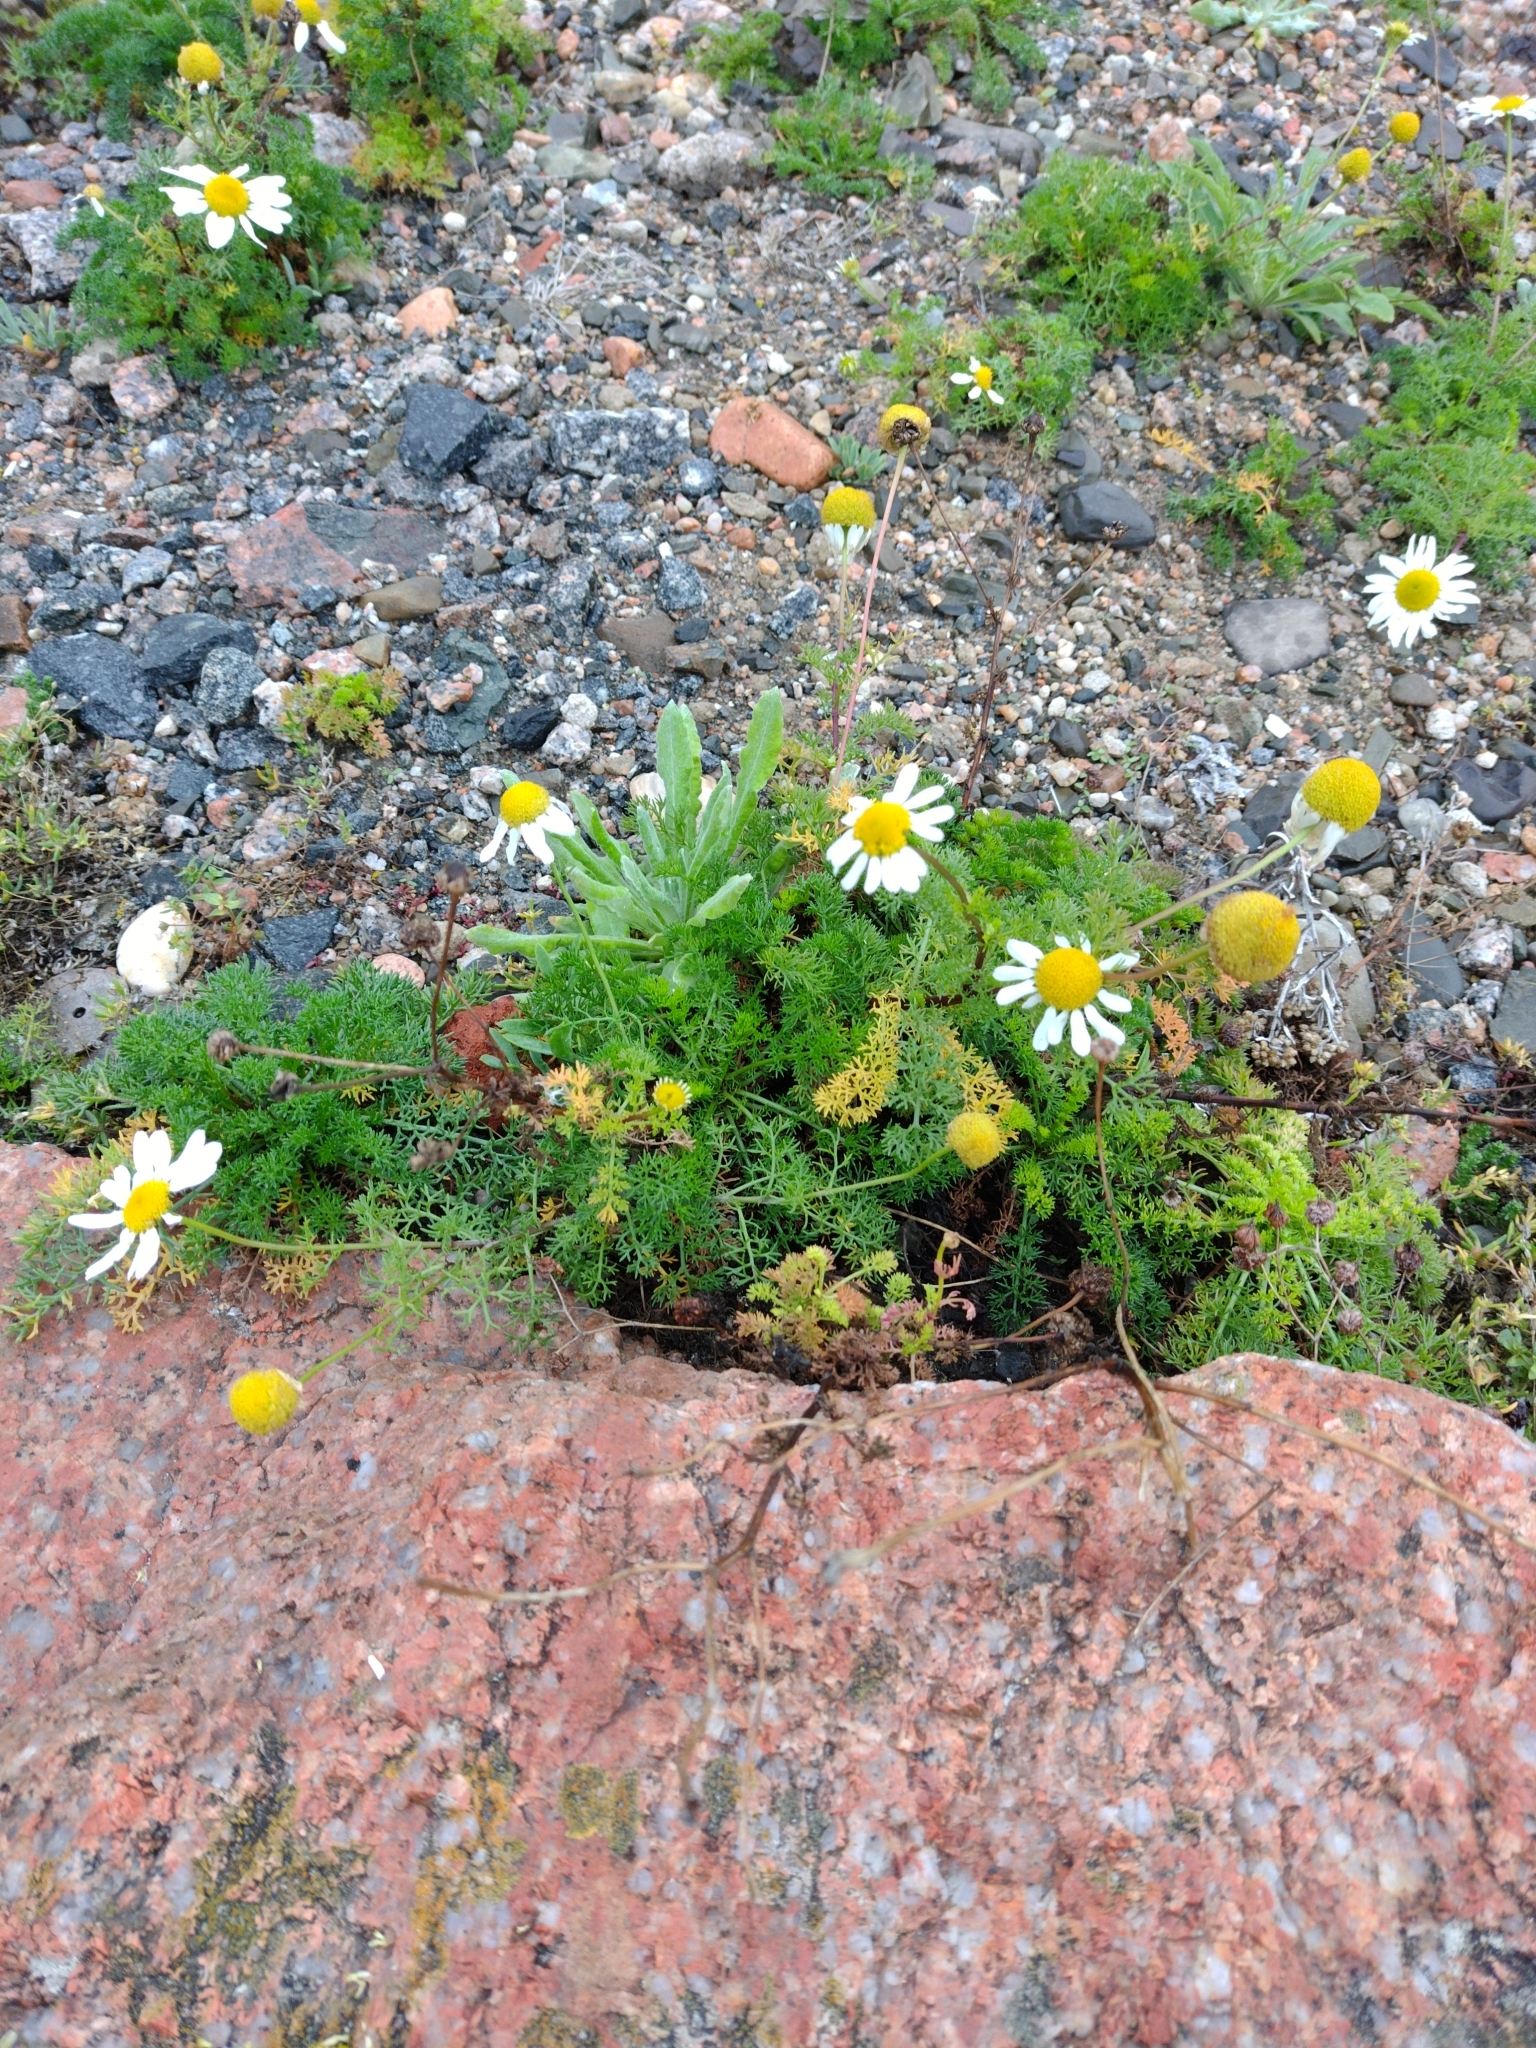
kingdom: Plantae
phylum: Tracheophyta
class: Magnoliopsida
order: Asterales
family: Asteraceae
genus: Tripleurospermum
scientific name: Tripleurospermum maritimum
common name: Sea mayweed
